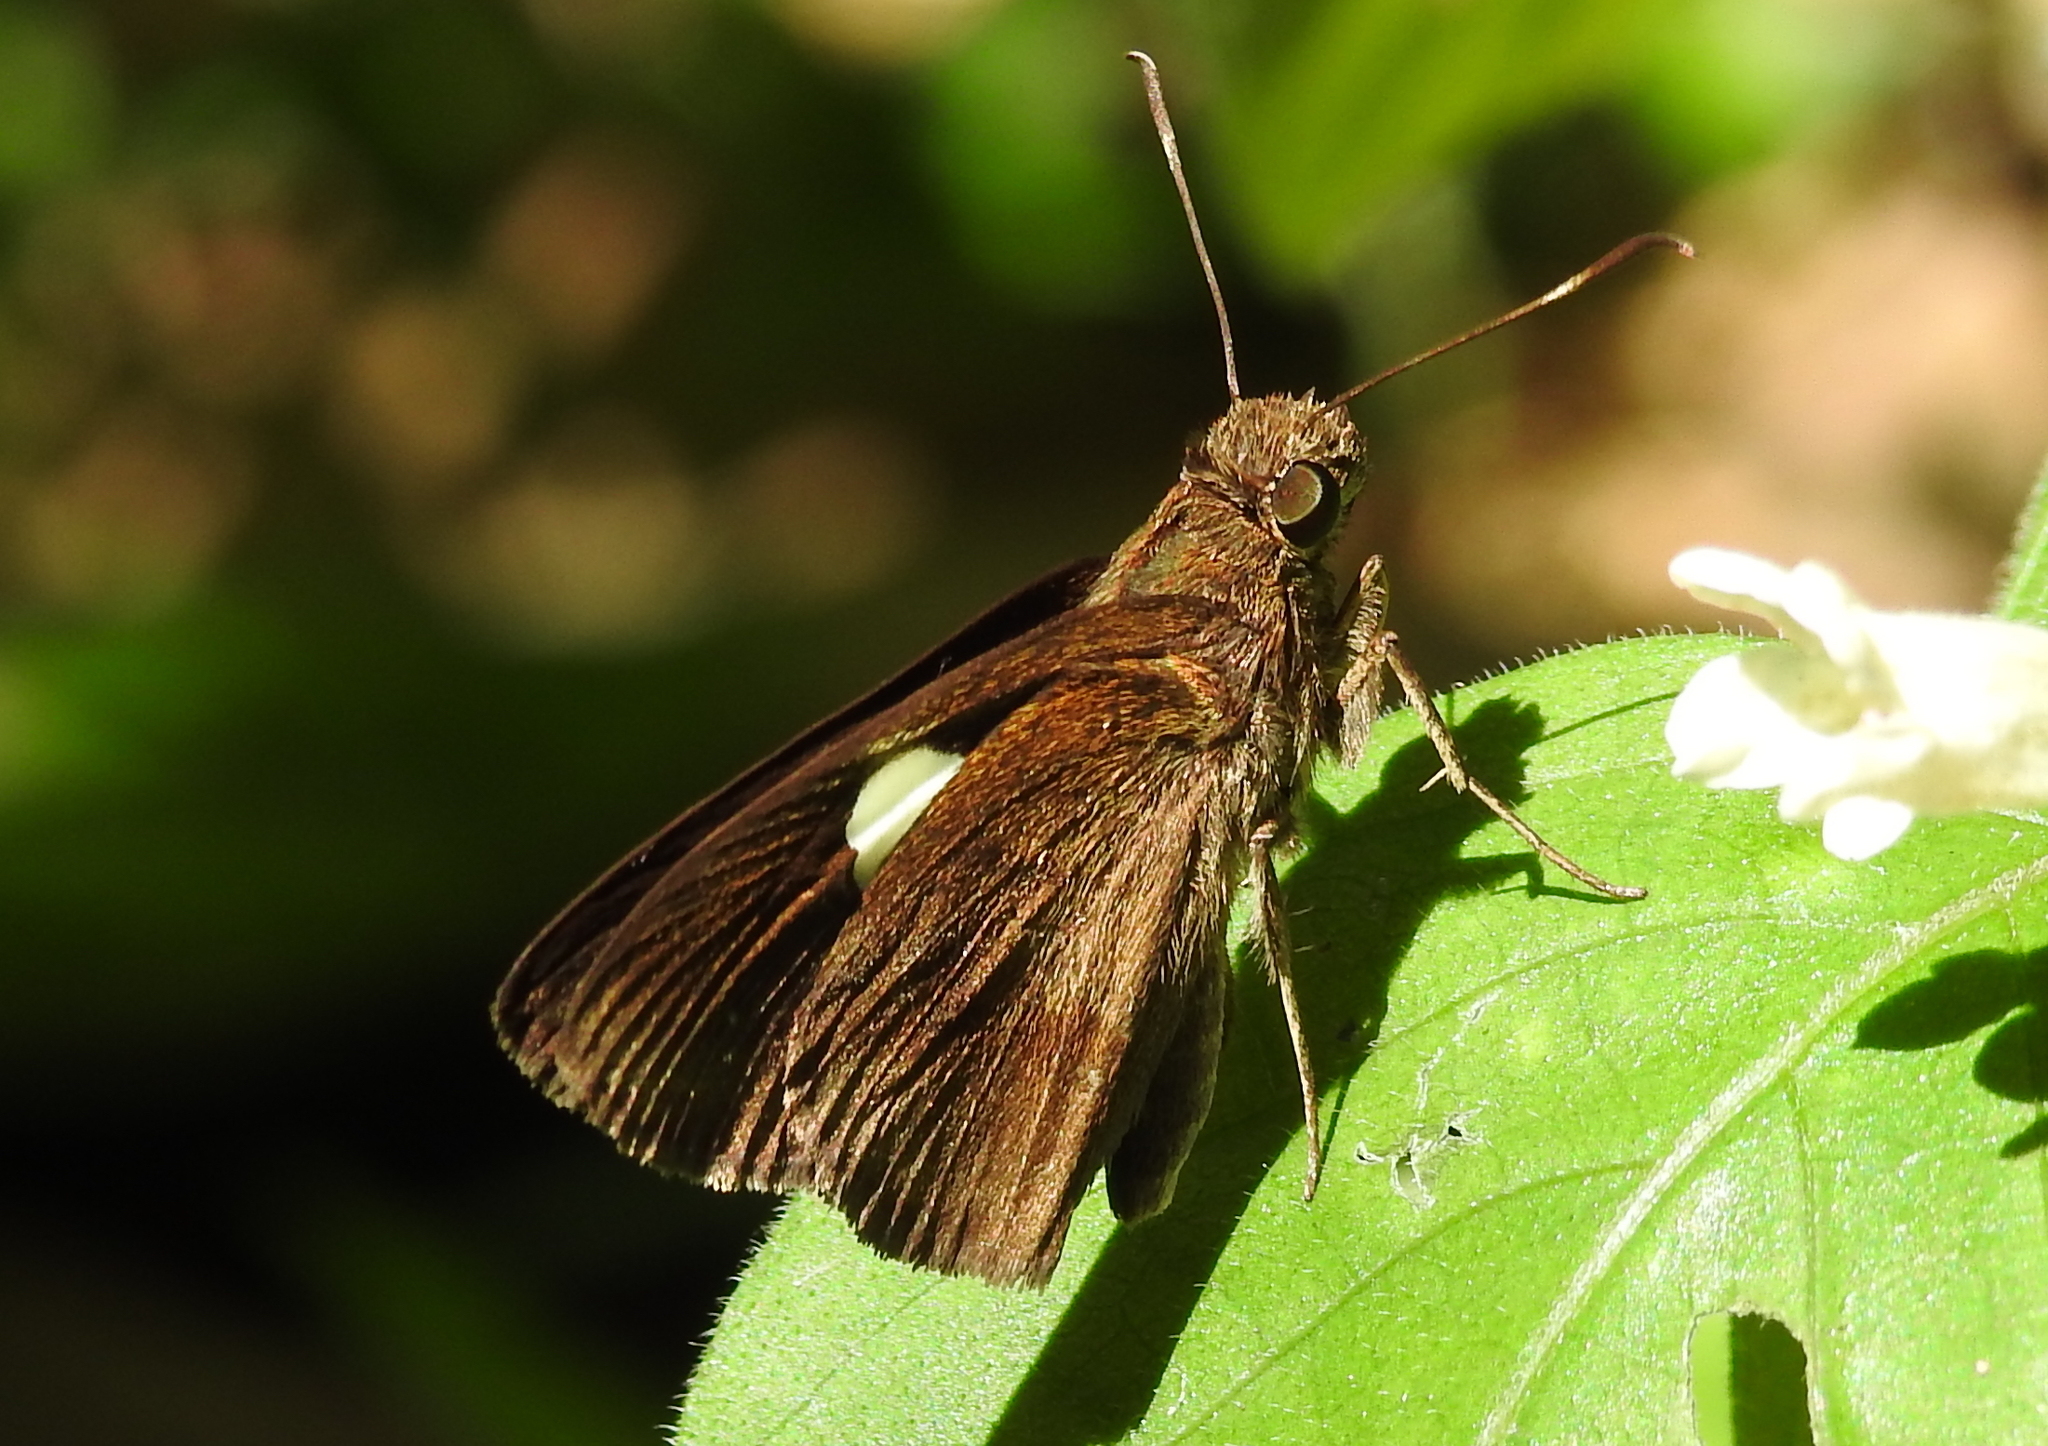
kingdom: Animalia
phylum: Arthropoda
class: Insecta
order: Lepidoptera
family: Hesperiidae
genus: Notocrypta
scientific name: Notocrypta paralysos
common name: Common banded demon
